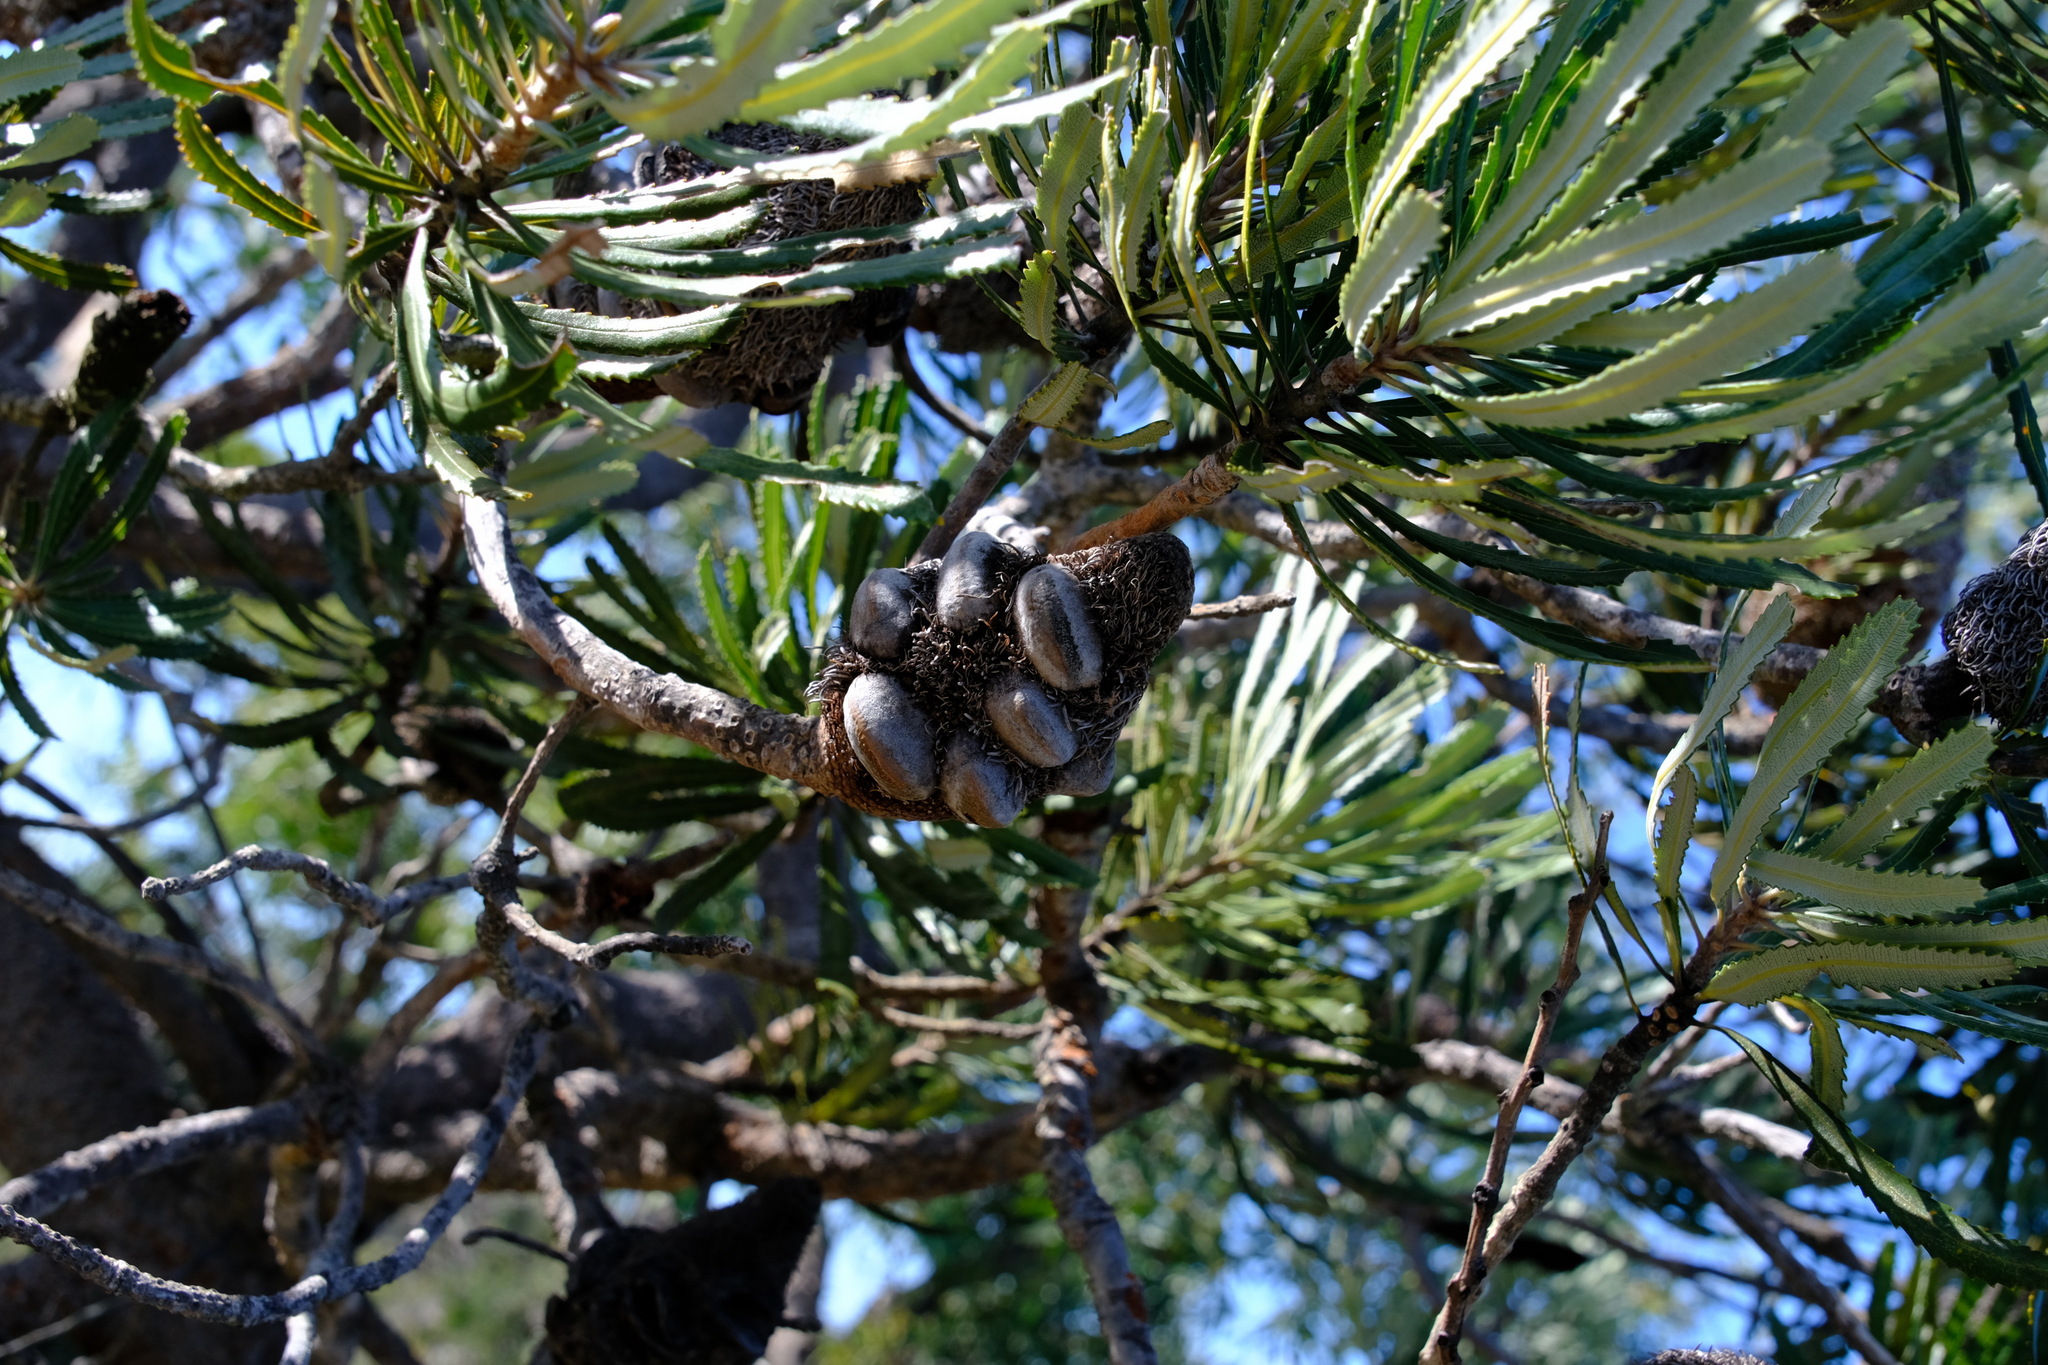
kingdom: Plantae
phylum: Tracheophyta
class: Magnoliopsida
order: Proteales
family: Proteaceae
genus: Banksia
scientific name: Banksia attenuata
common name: Coast banksia
